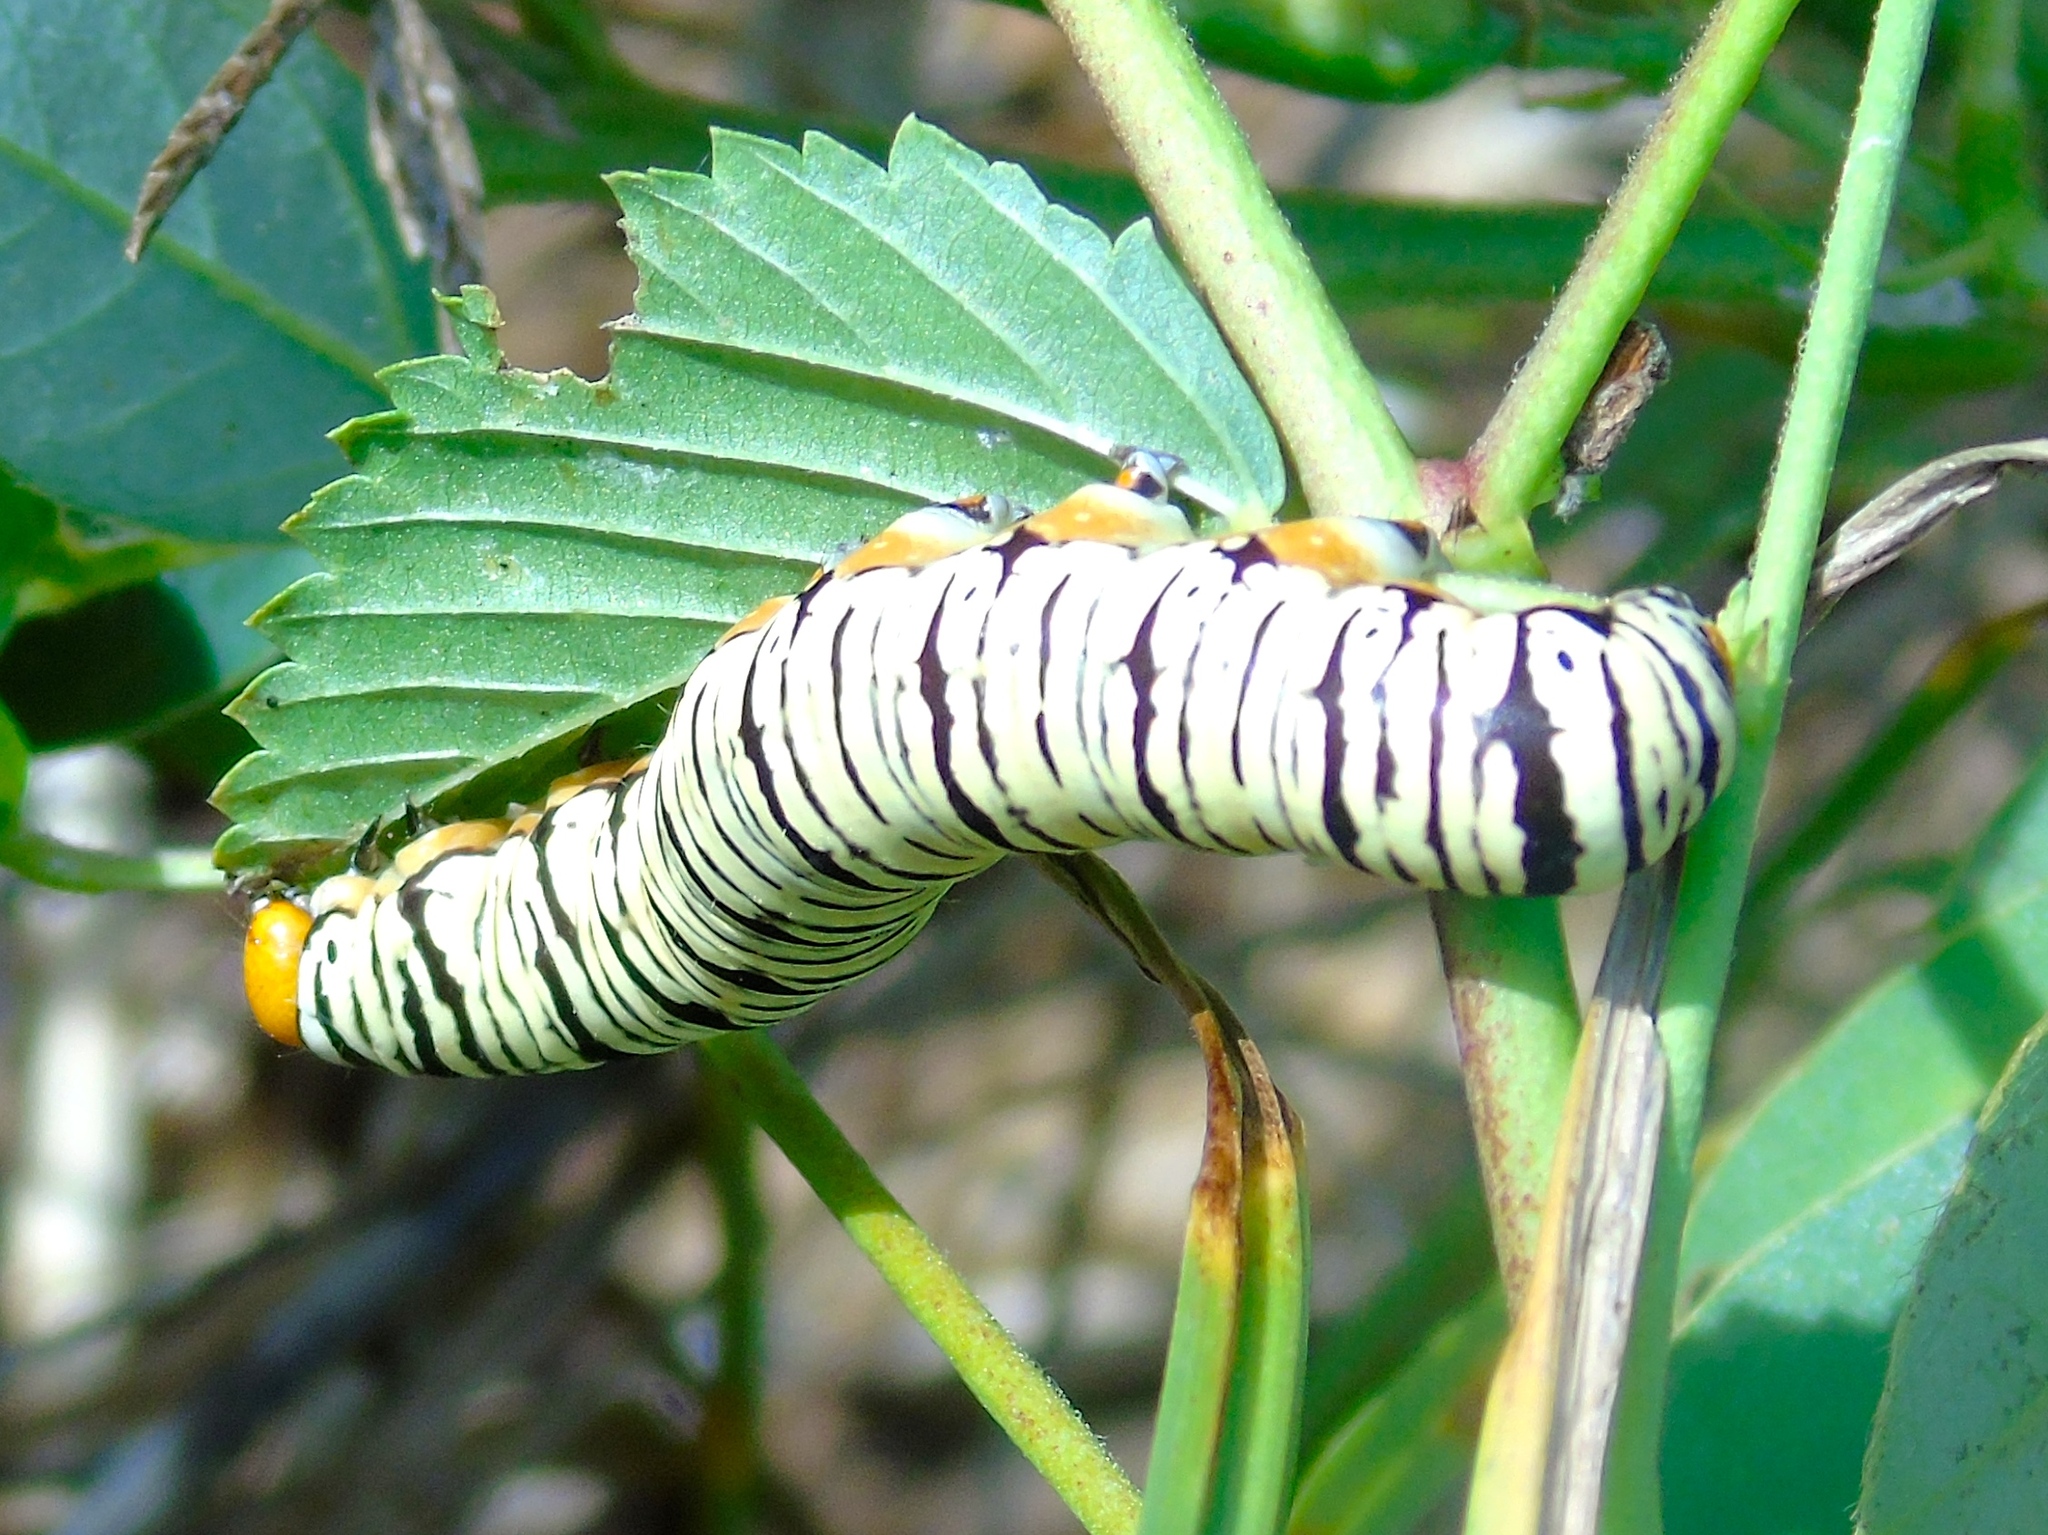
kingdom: Animalia
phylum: Arthropoda
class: Insecta
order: Lepidoptera
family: Erebidae
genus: Diphthera
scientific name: Diphthera festiva
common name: Hieroglyphic moth
